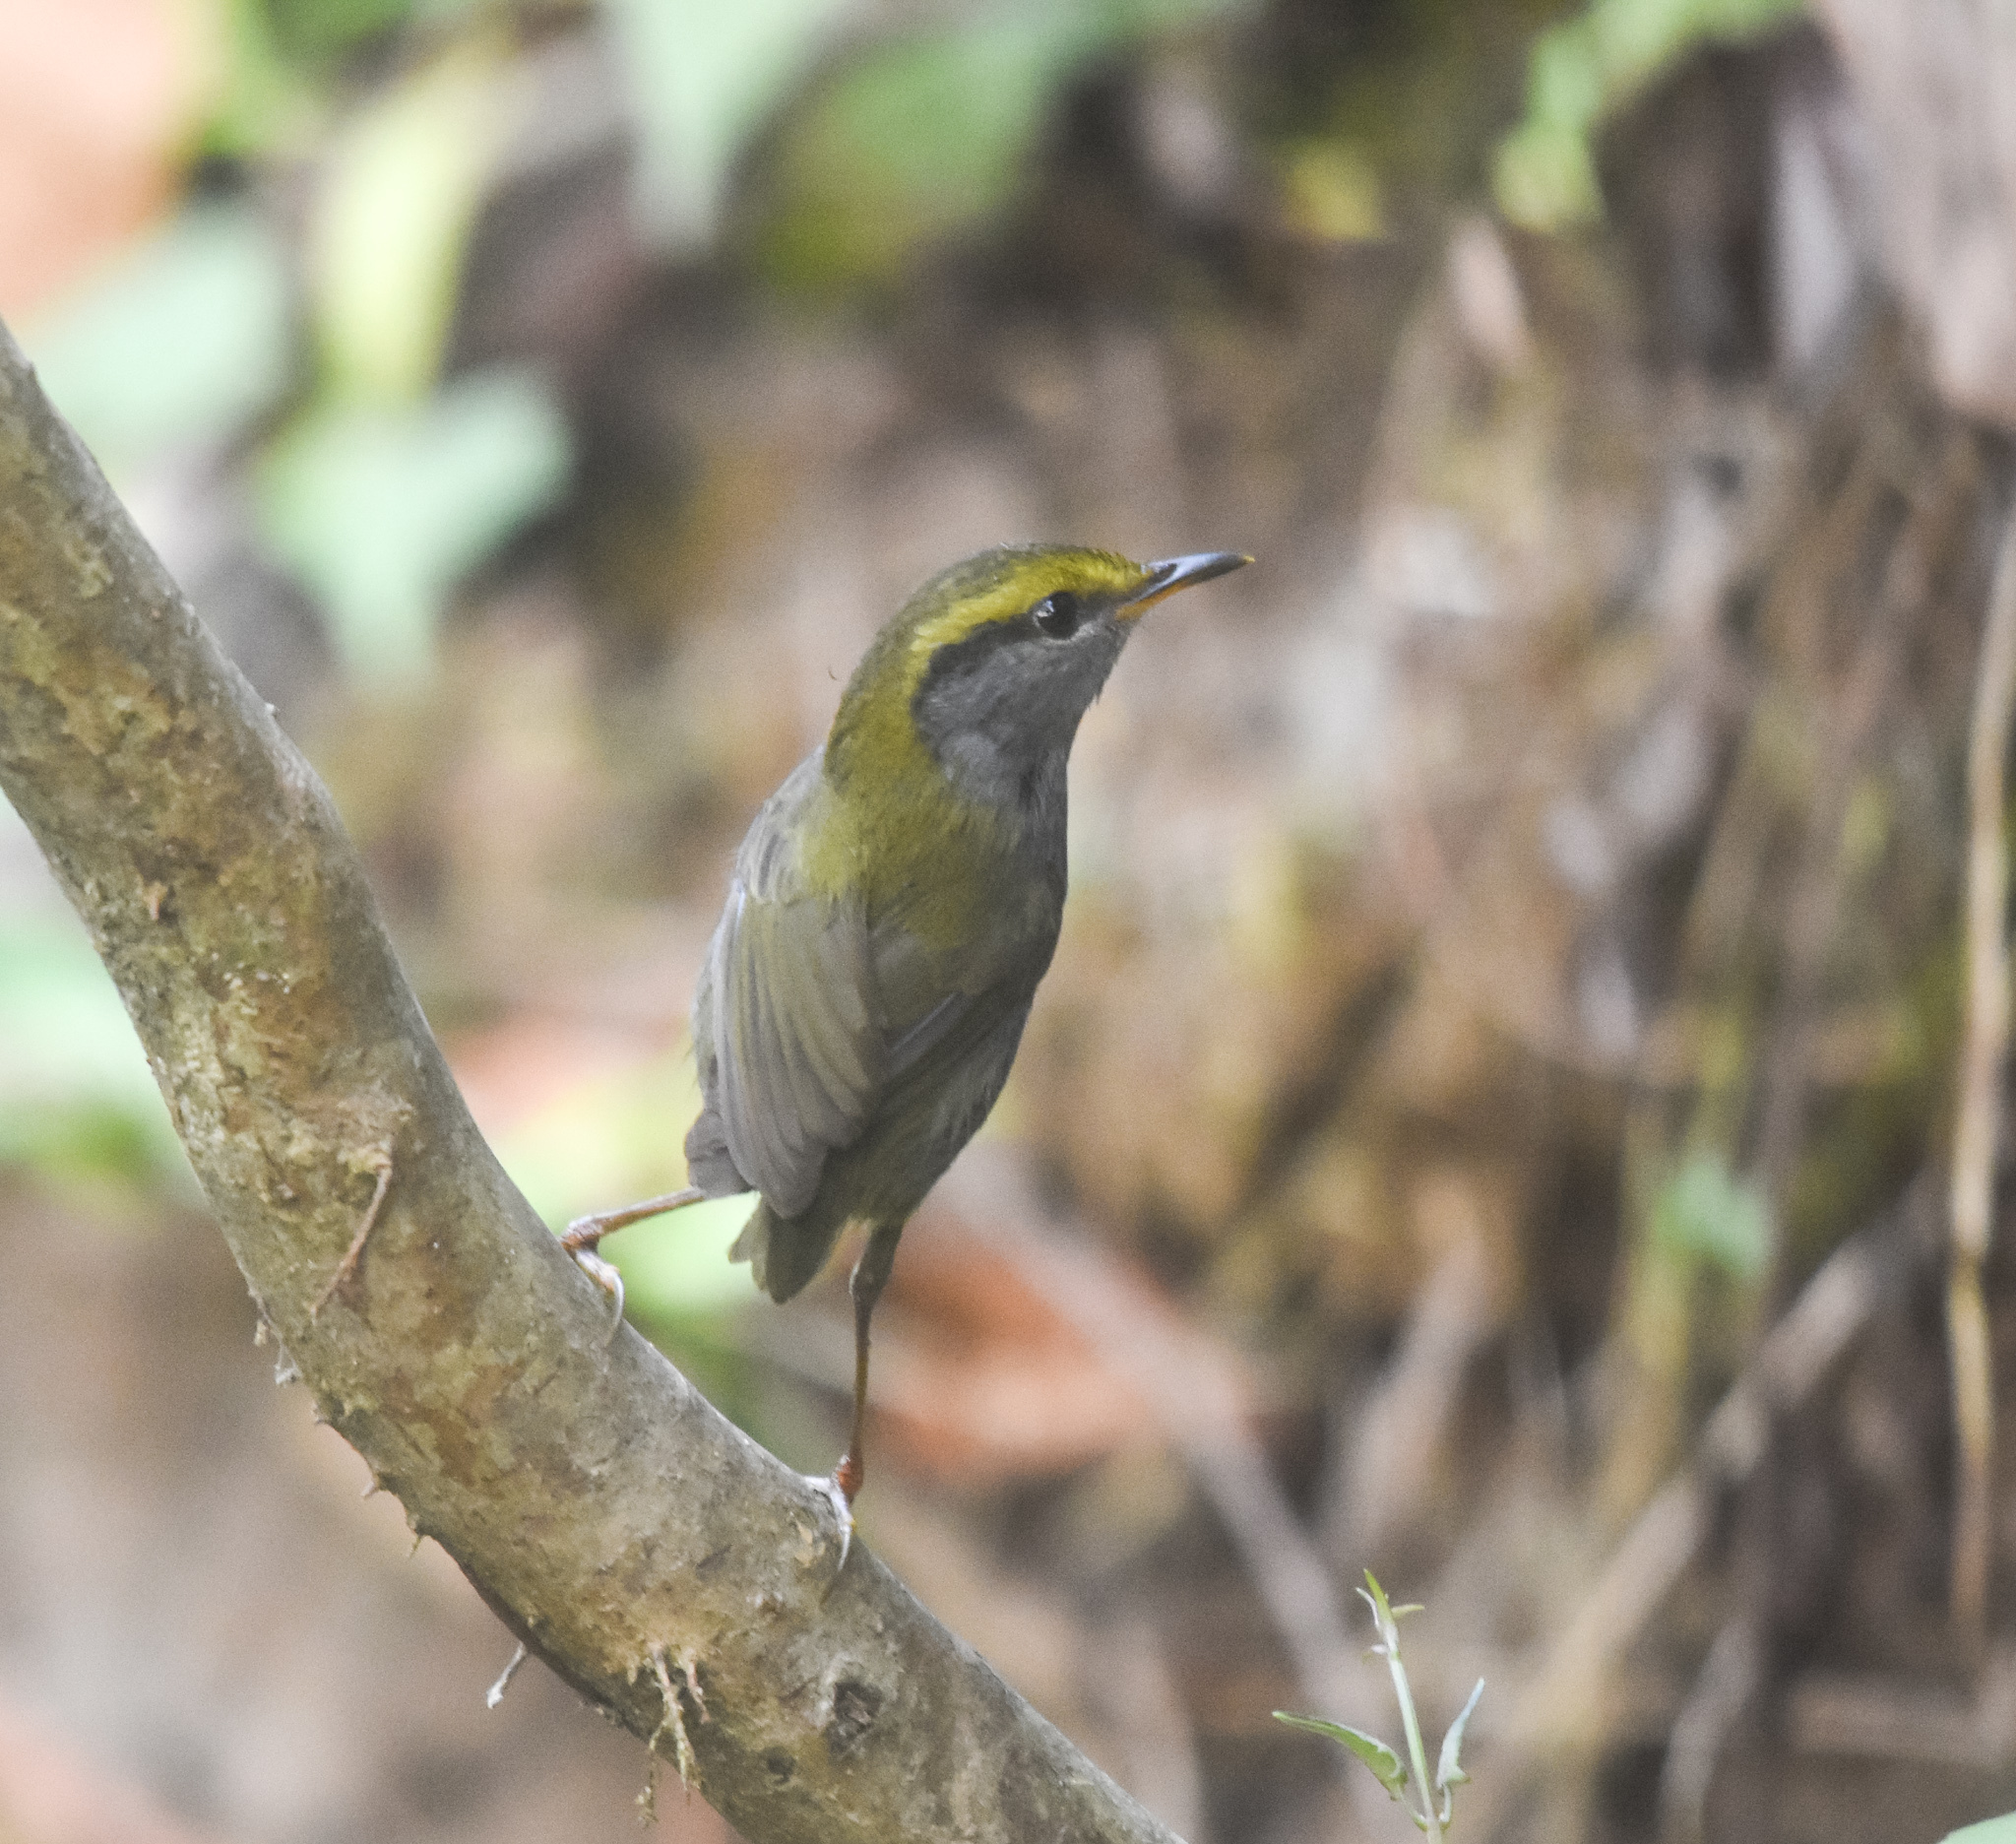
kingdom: Animalia
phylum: Chordata
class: Aves
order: Passeriformes
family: Cettiidae
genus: Tesia
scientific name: Tesia cyaniventer
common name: Grey-bellied tesia
